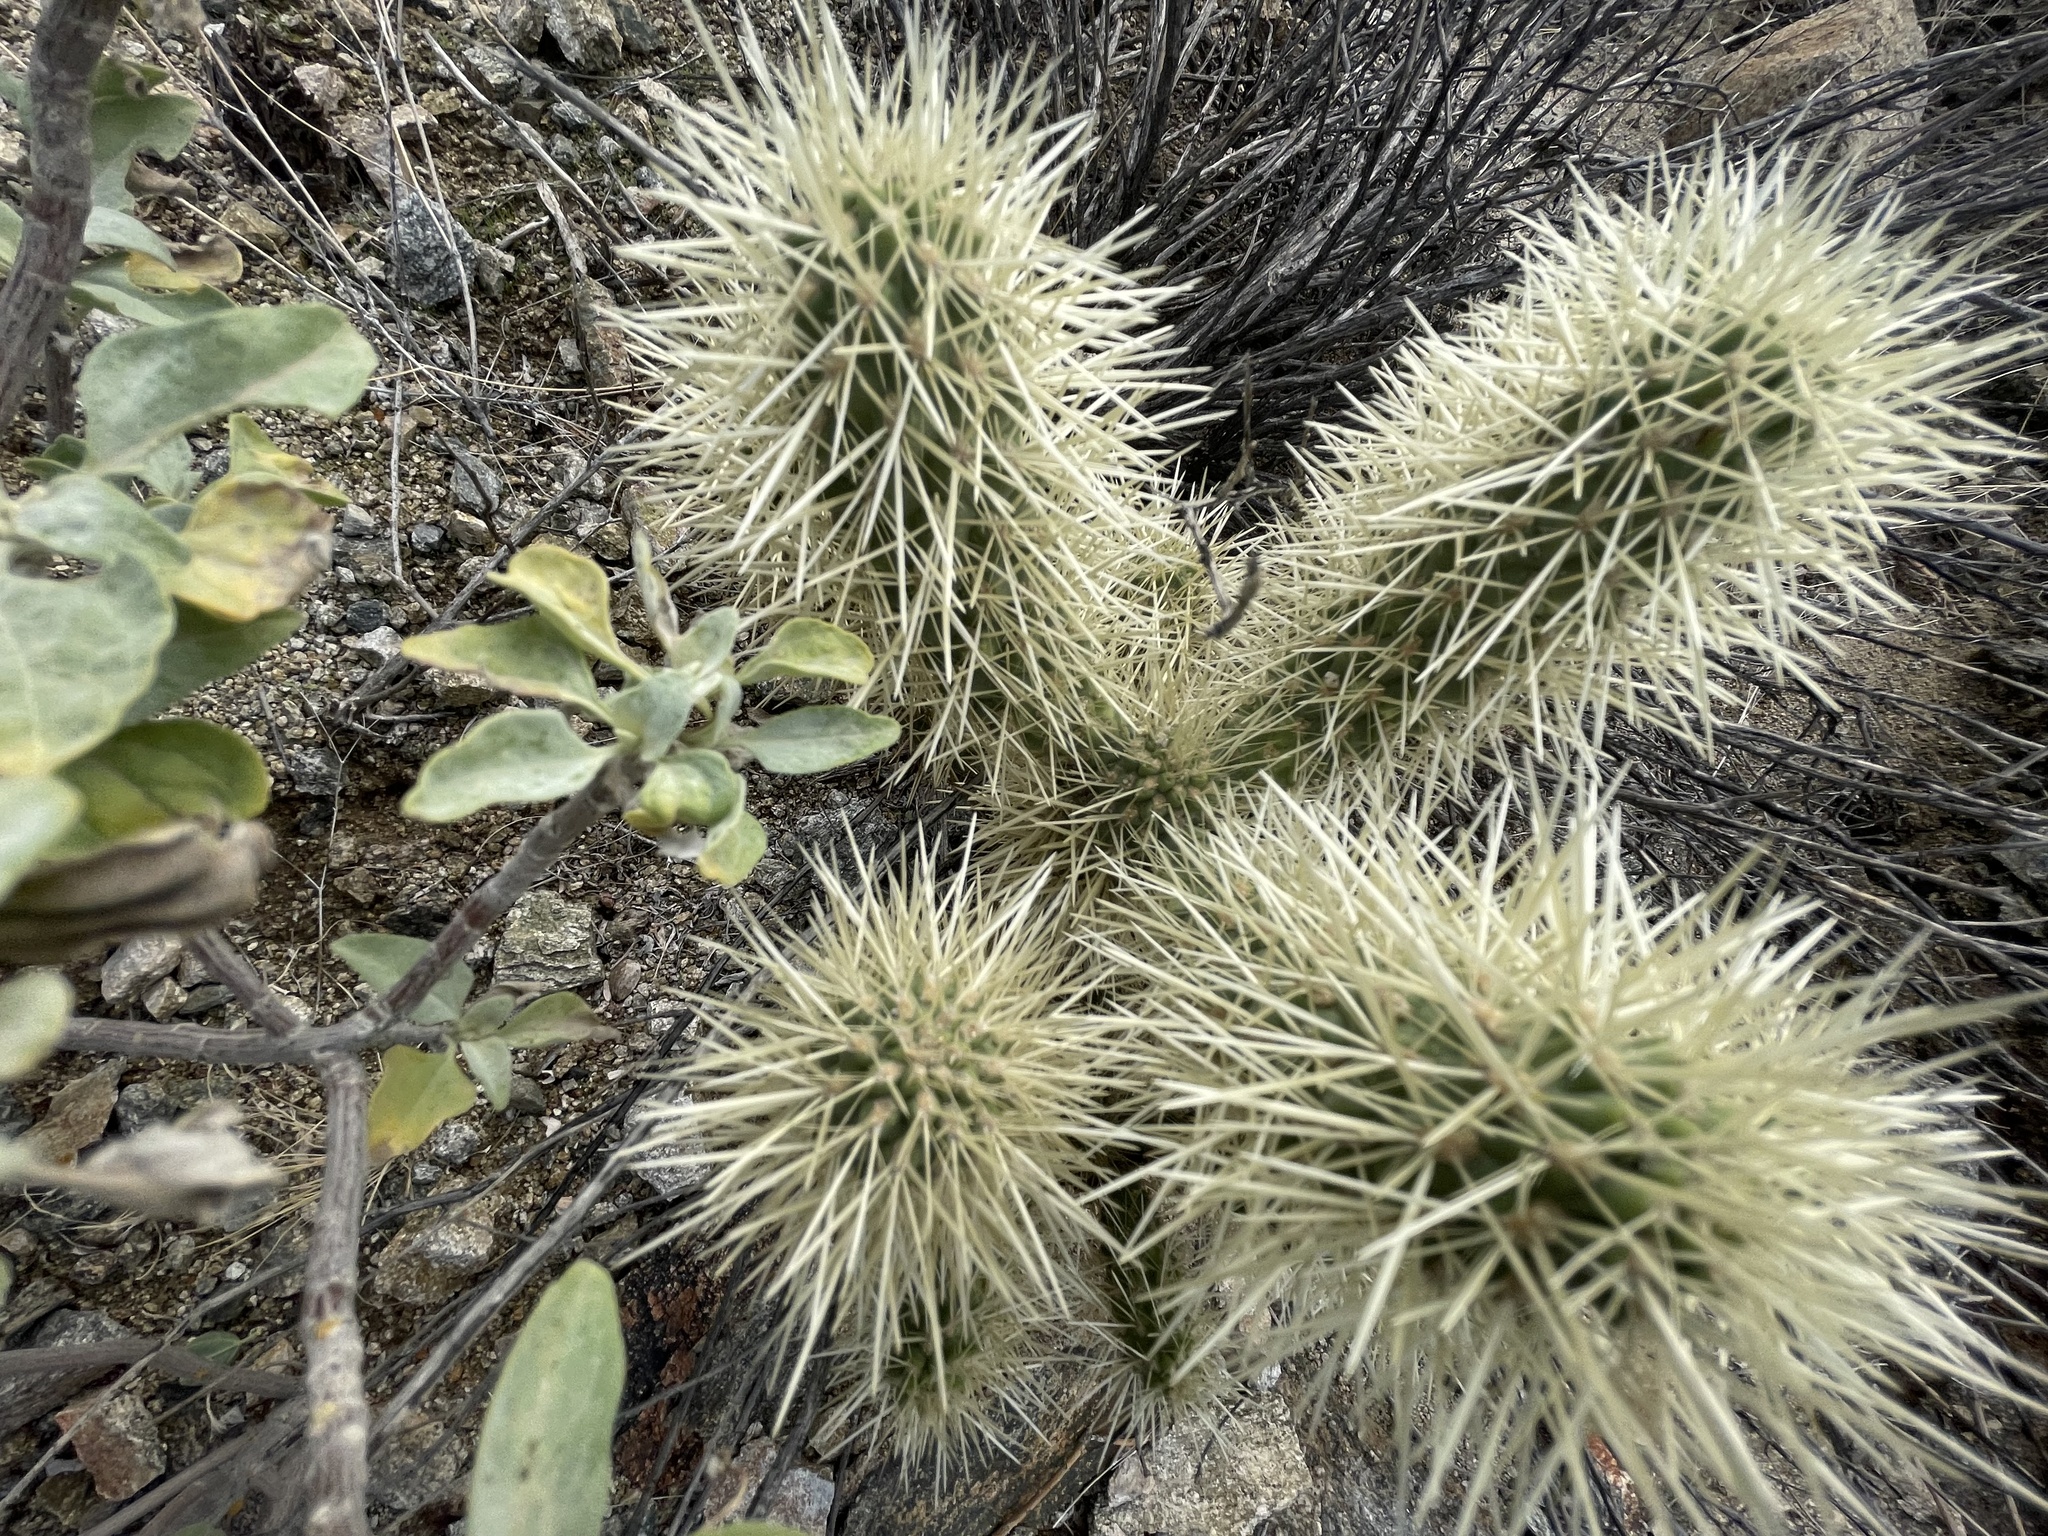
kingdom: Plantae
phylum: Tracheophyta
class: Magnoliopsida
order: Caryophyllales
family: Cactaceae
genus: Cylindropuntia
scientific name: Cylindropuntia fosbergii
